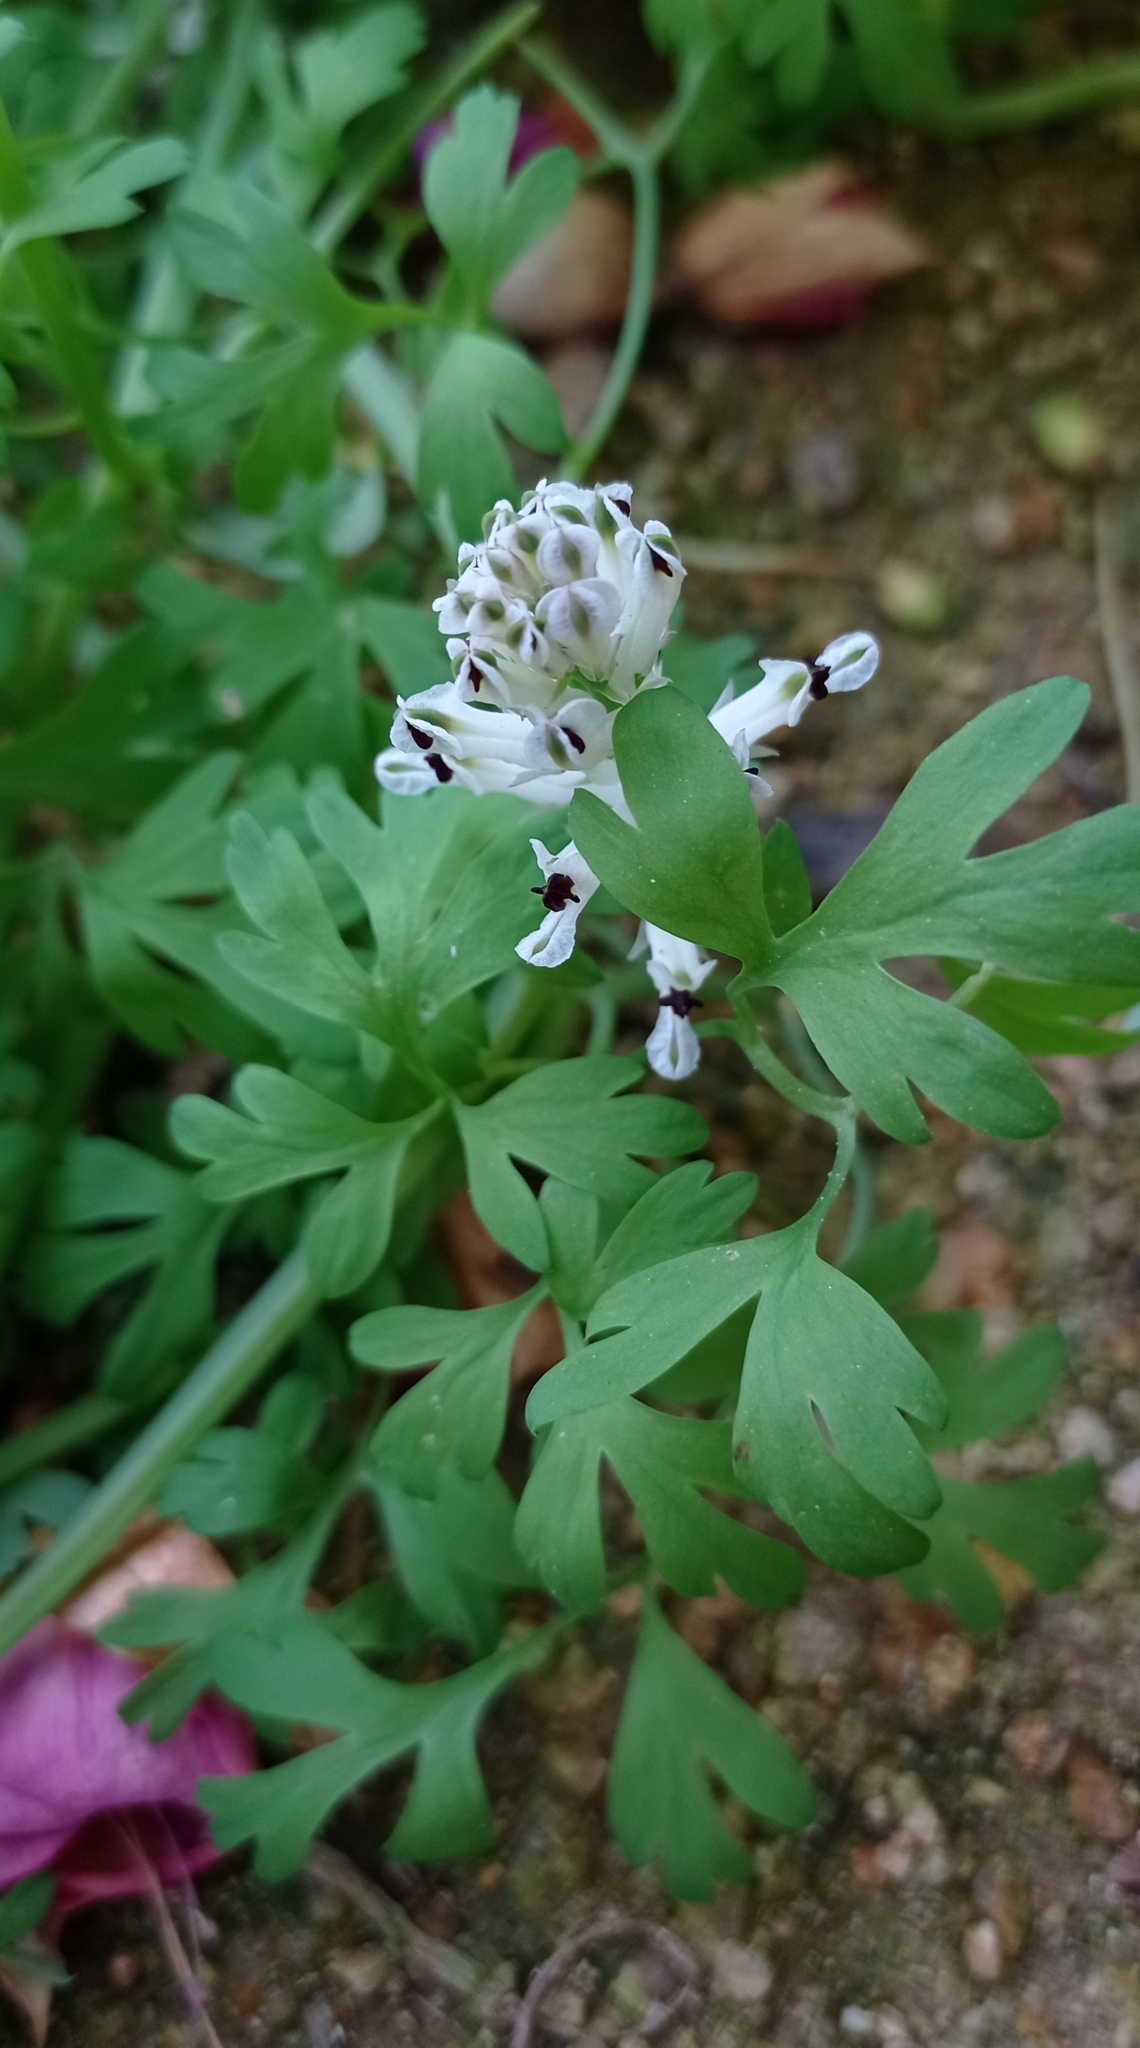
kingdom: Plantae
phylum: Tracheophyta
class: Magnoliopsida
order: Ranunculales
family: Papaveraceae
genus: Fumaria
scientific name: Fumaria agraria
